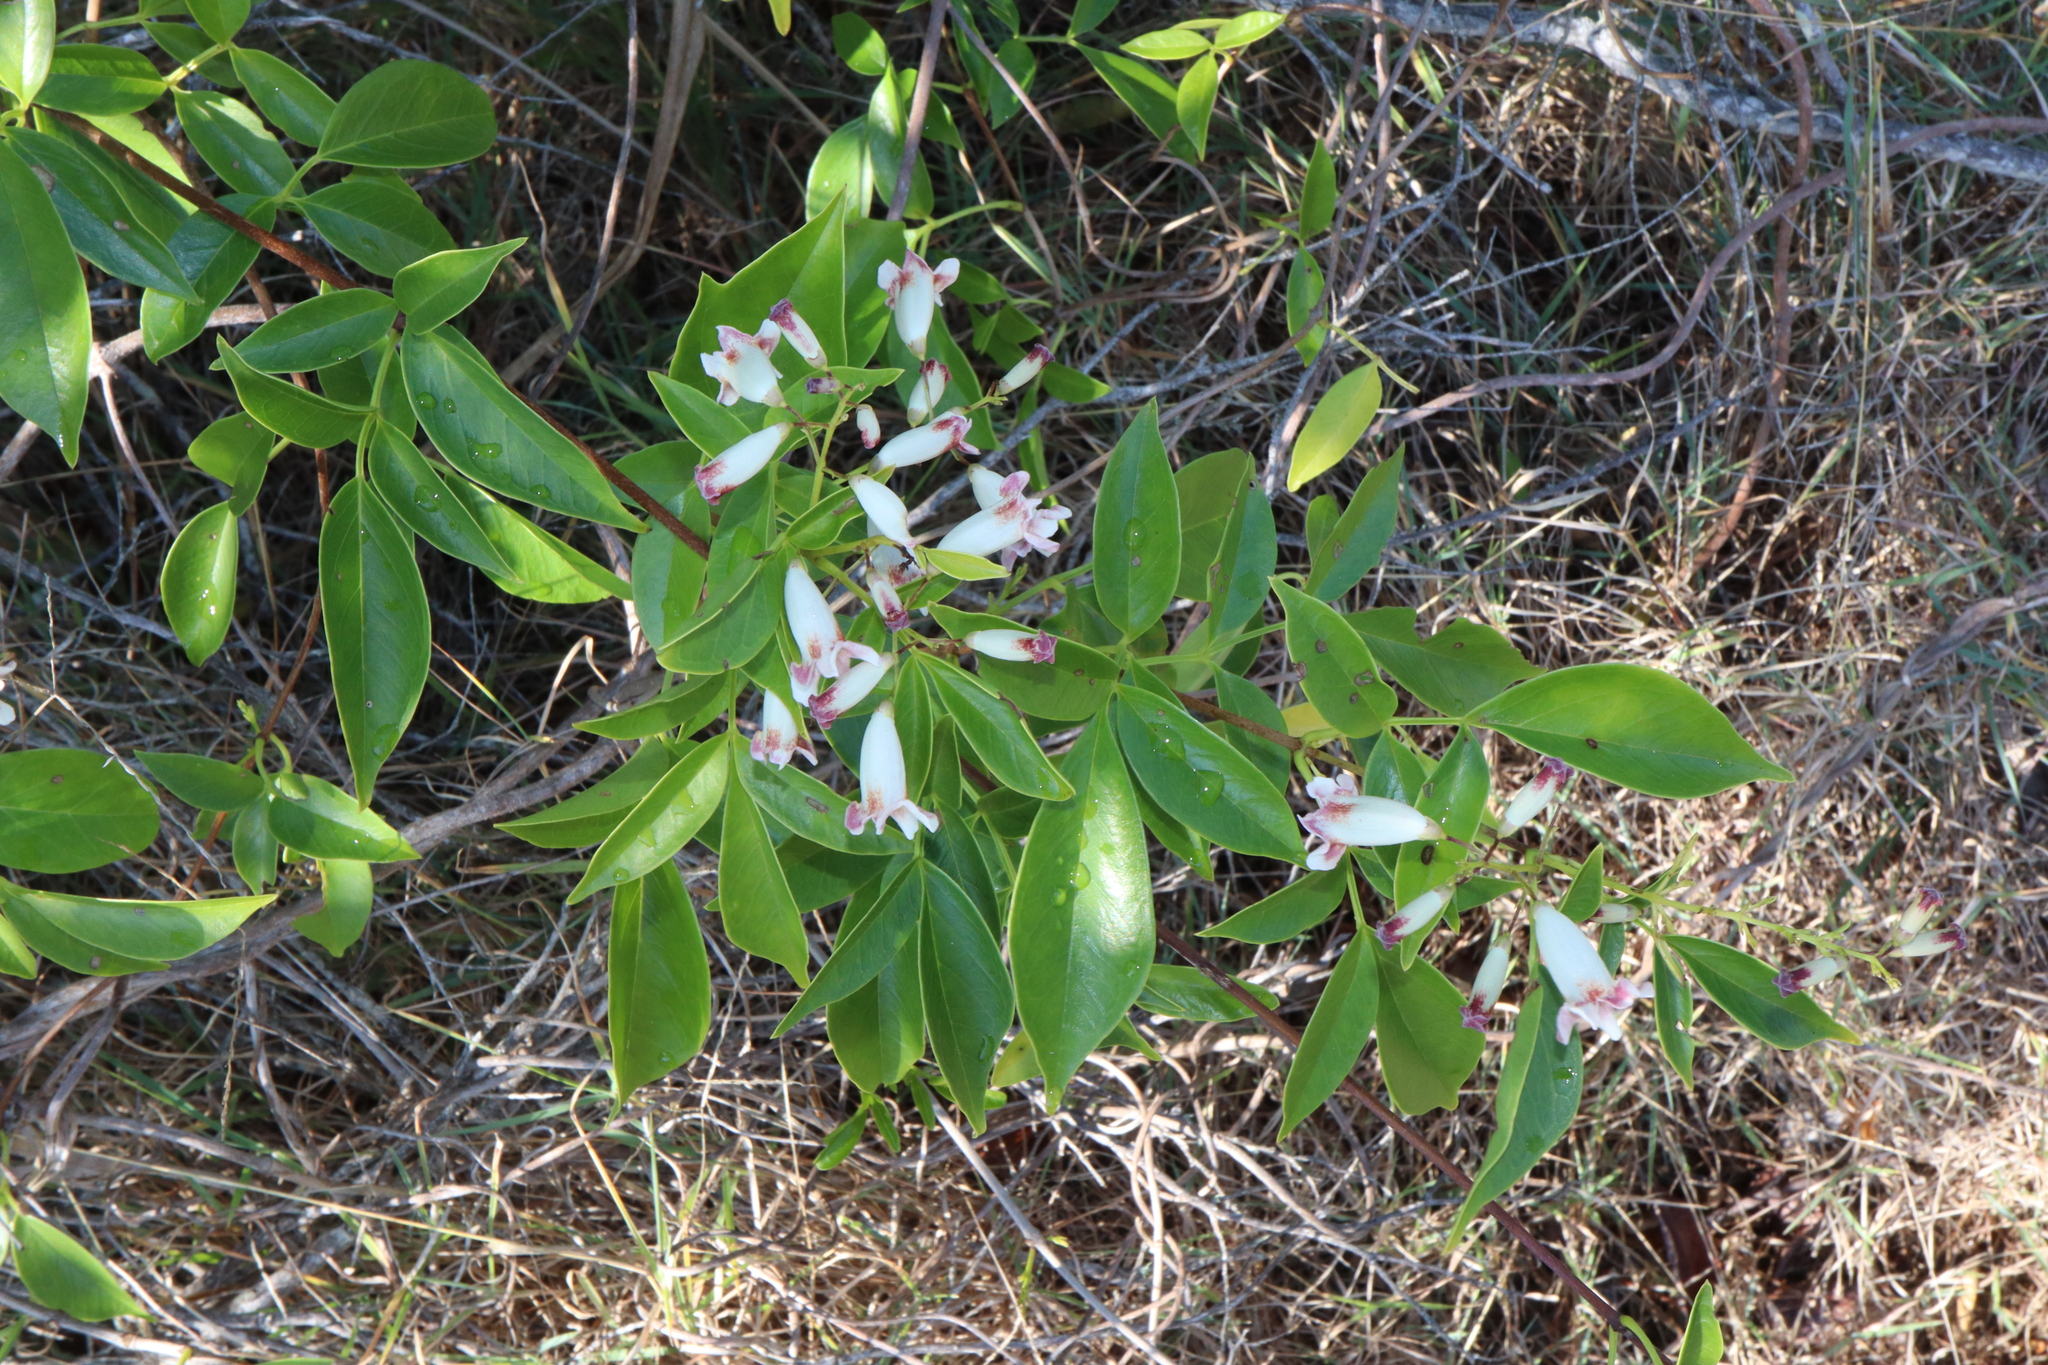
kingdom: Plantae
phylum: Tracheophyta
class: Magnoliopsida
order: Lamiales
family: Bignoniaceae
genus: Pandorea
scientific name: Pandorea pandorana
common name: Wonga-wonga-vine
